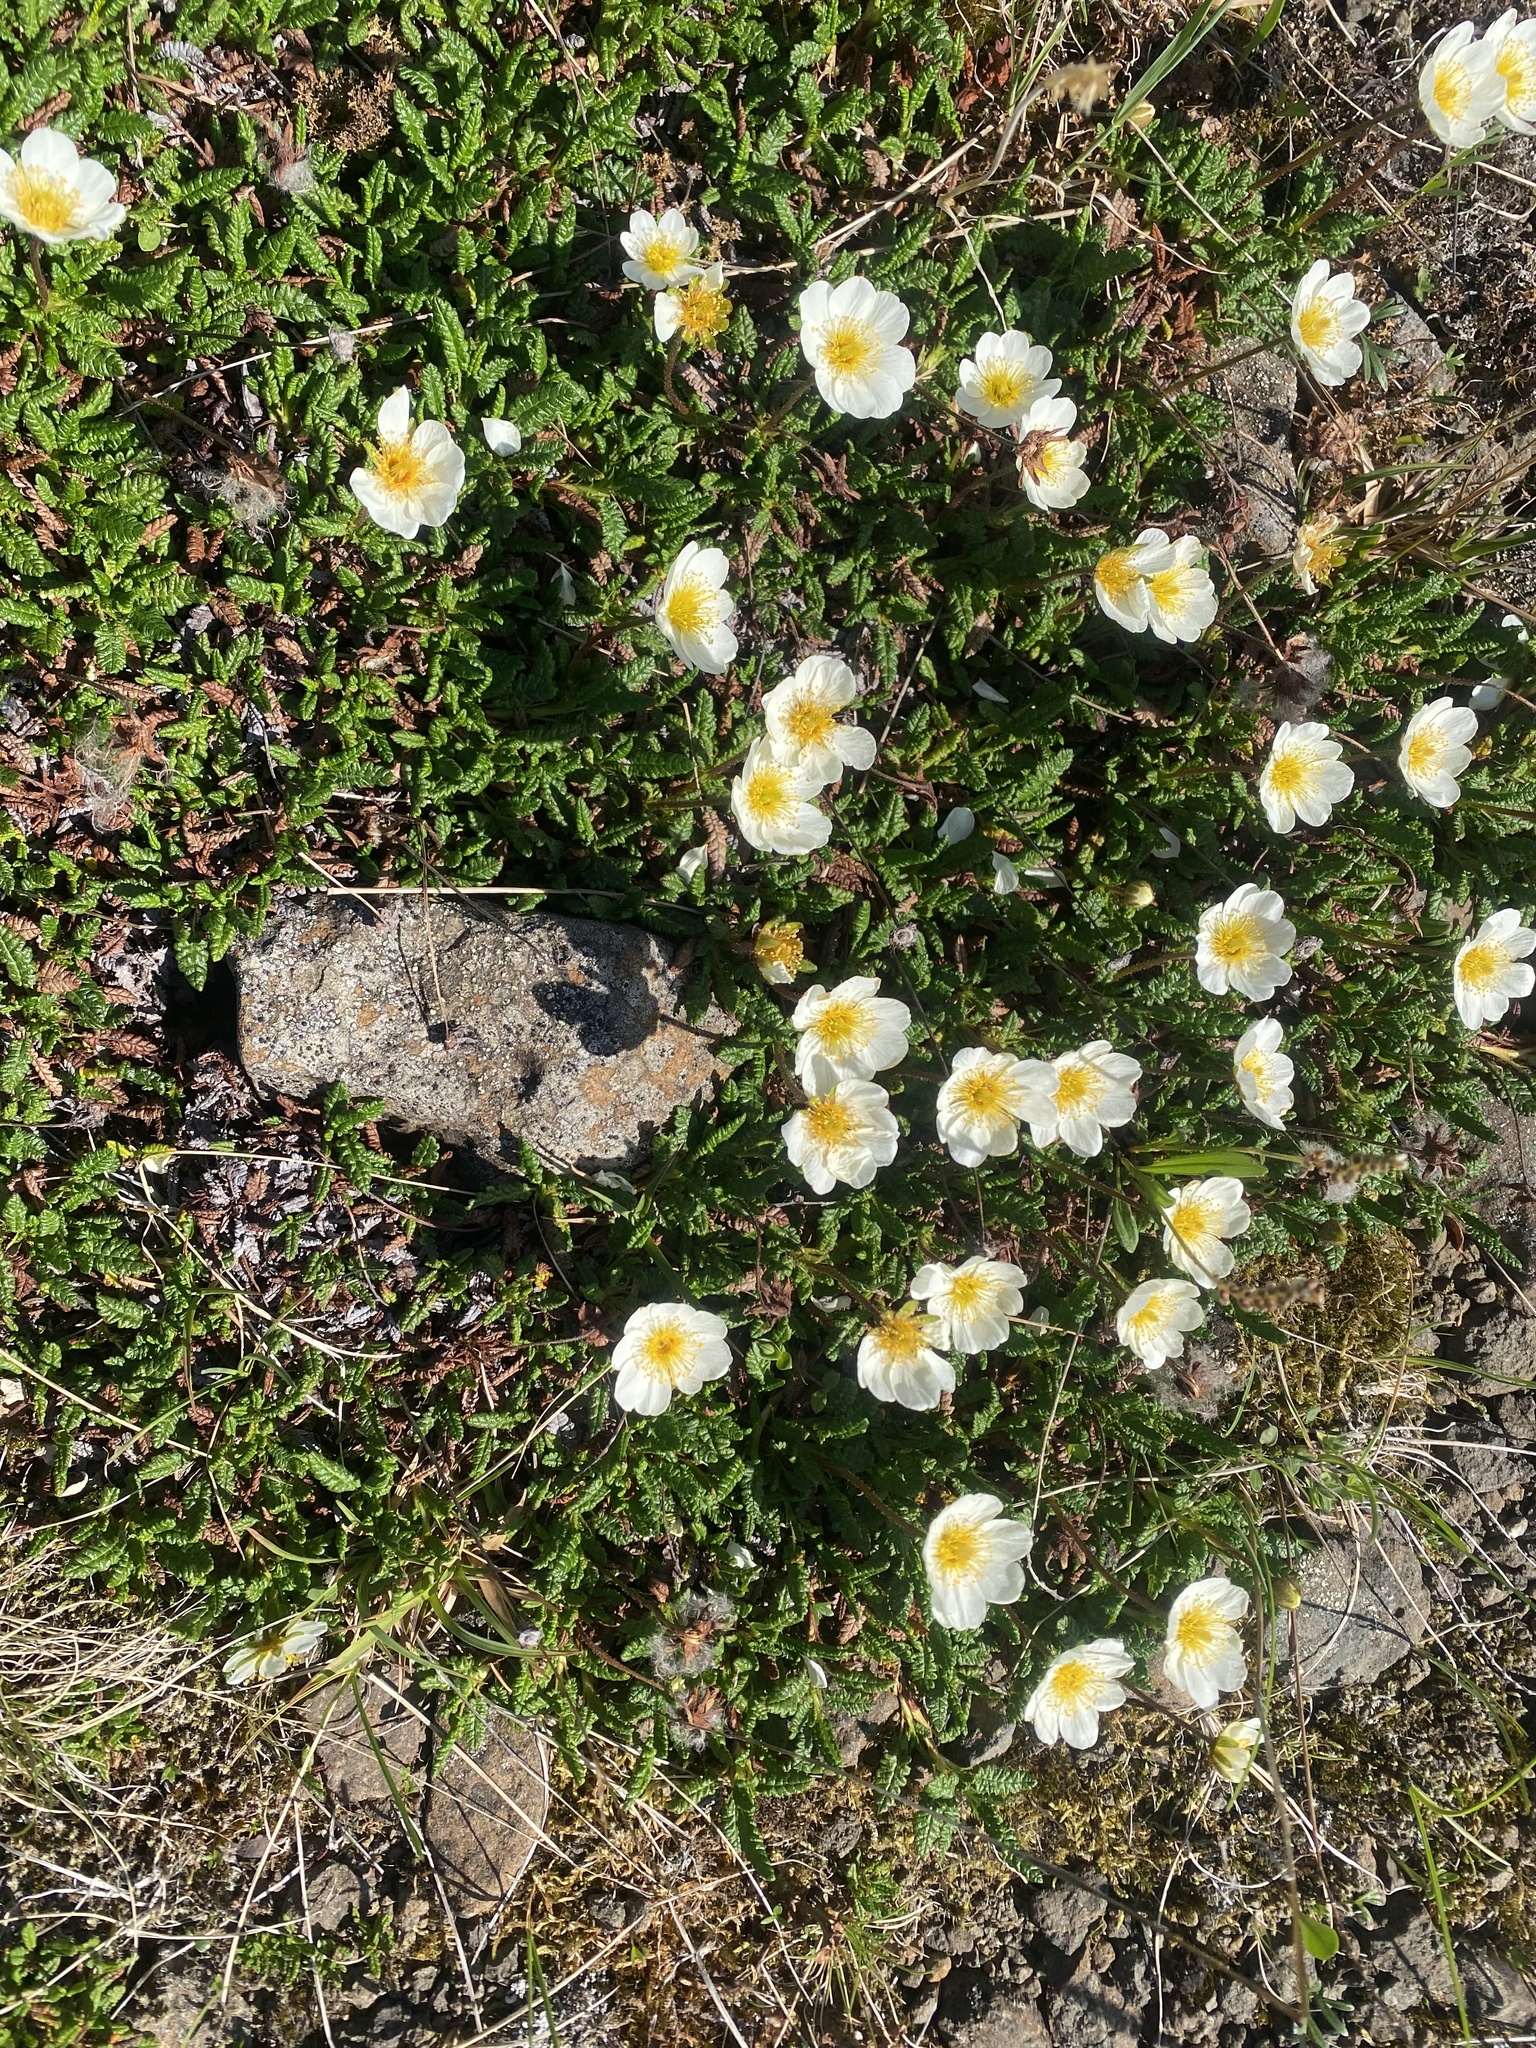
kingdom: Plantae
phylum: Tracheophyta
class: Magnoliopsida
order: Rosales
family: Rosaceae
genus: Dryas
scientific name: Dryas octopetala
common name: Eight-petal mountain-avens
